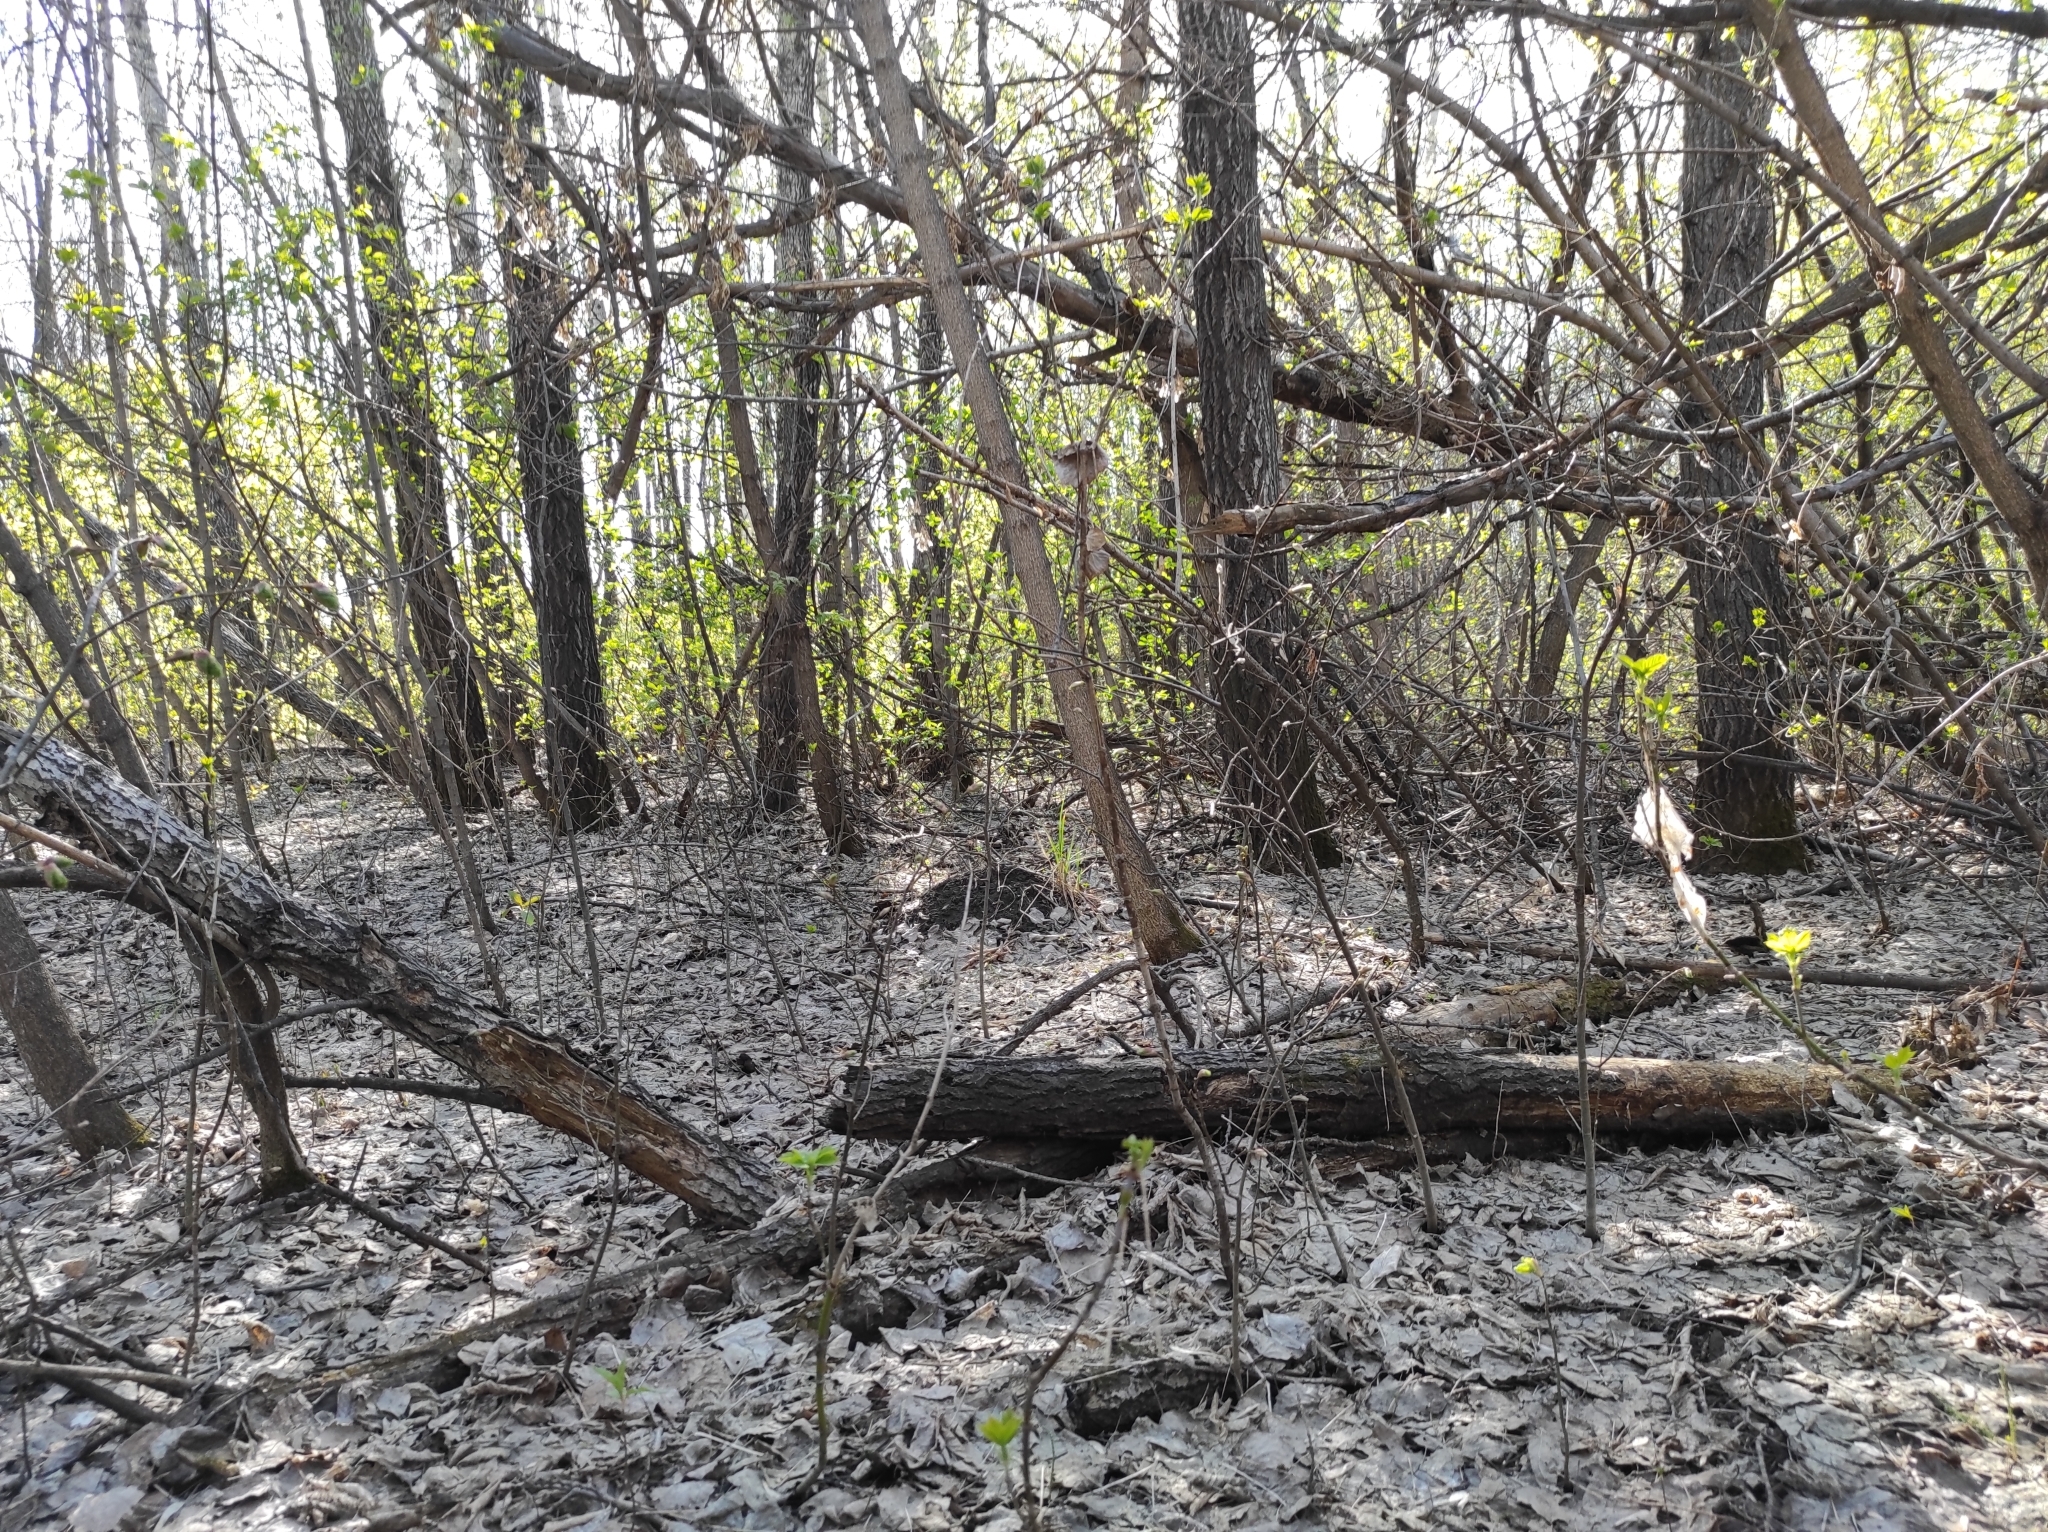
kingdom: Fungi
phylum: Basidiomycota
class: Agaricomycetes
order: Polyporales
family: Fomitopsidaceae
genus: Fomitopsis
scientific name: Fomitopsis pinicola
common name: Red-belted bracket
